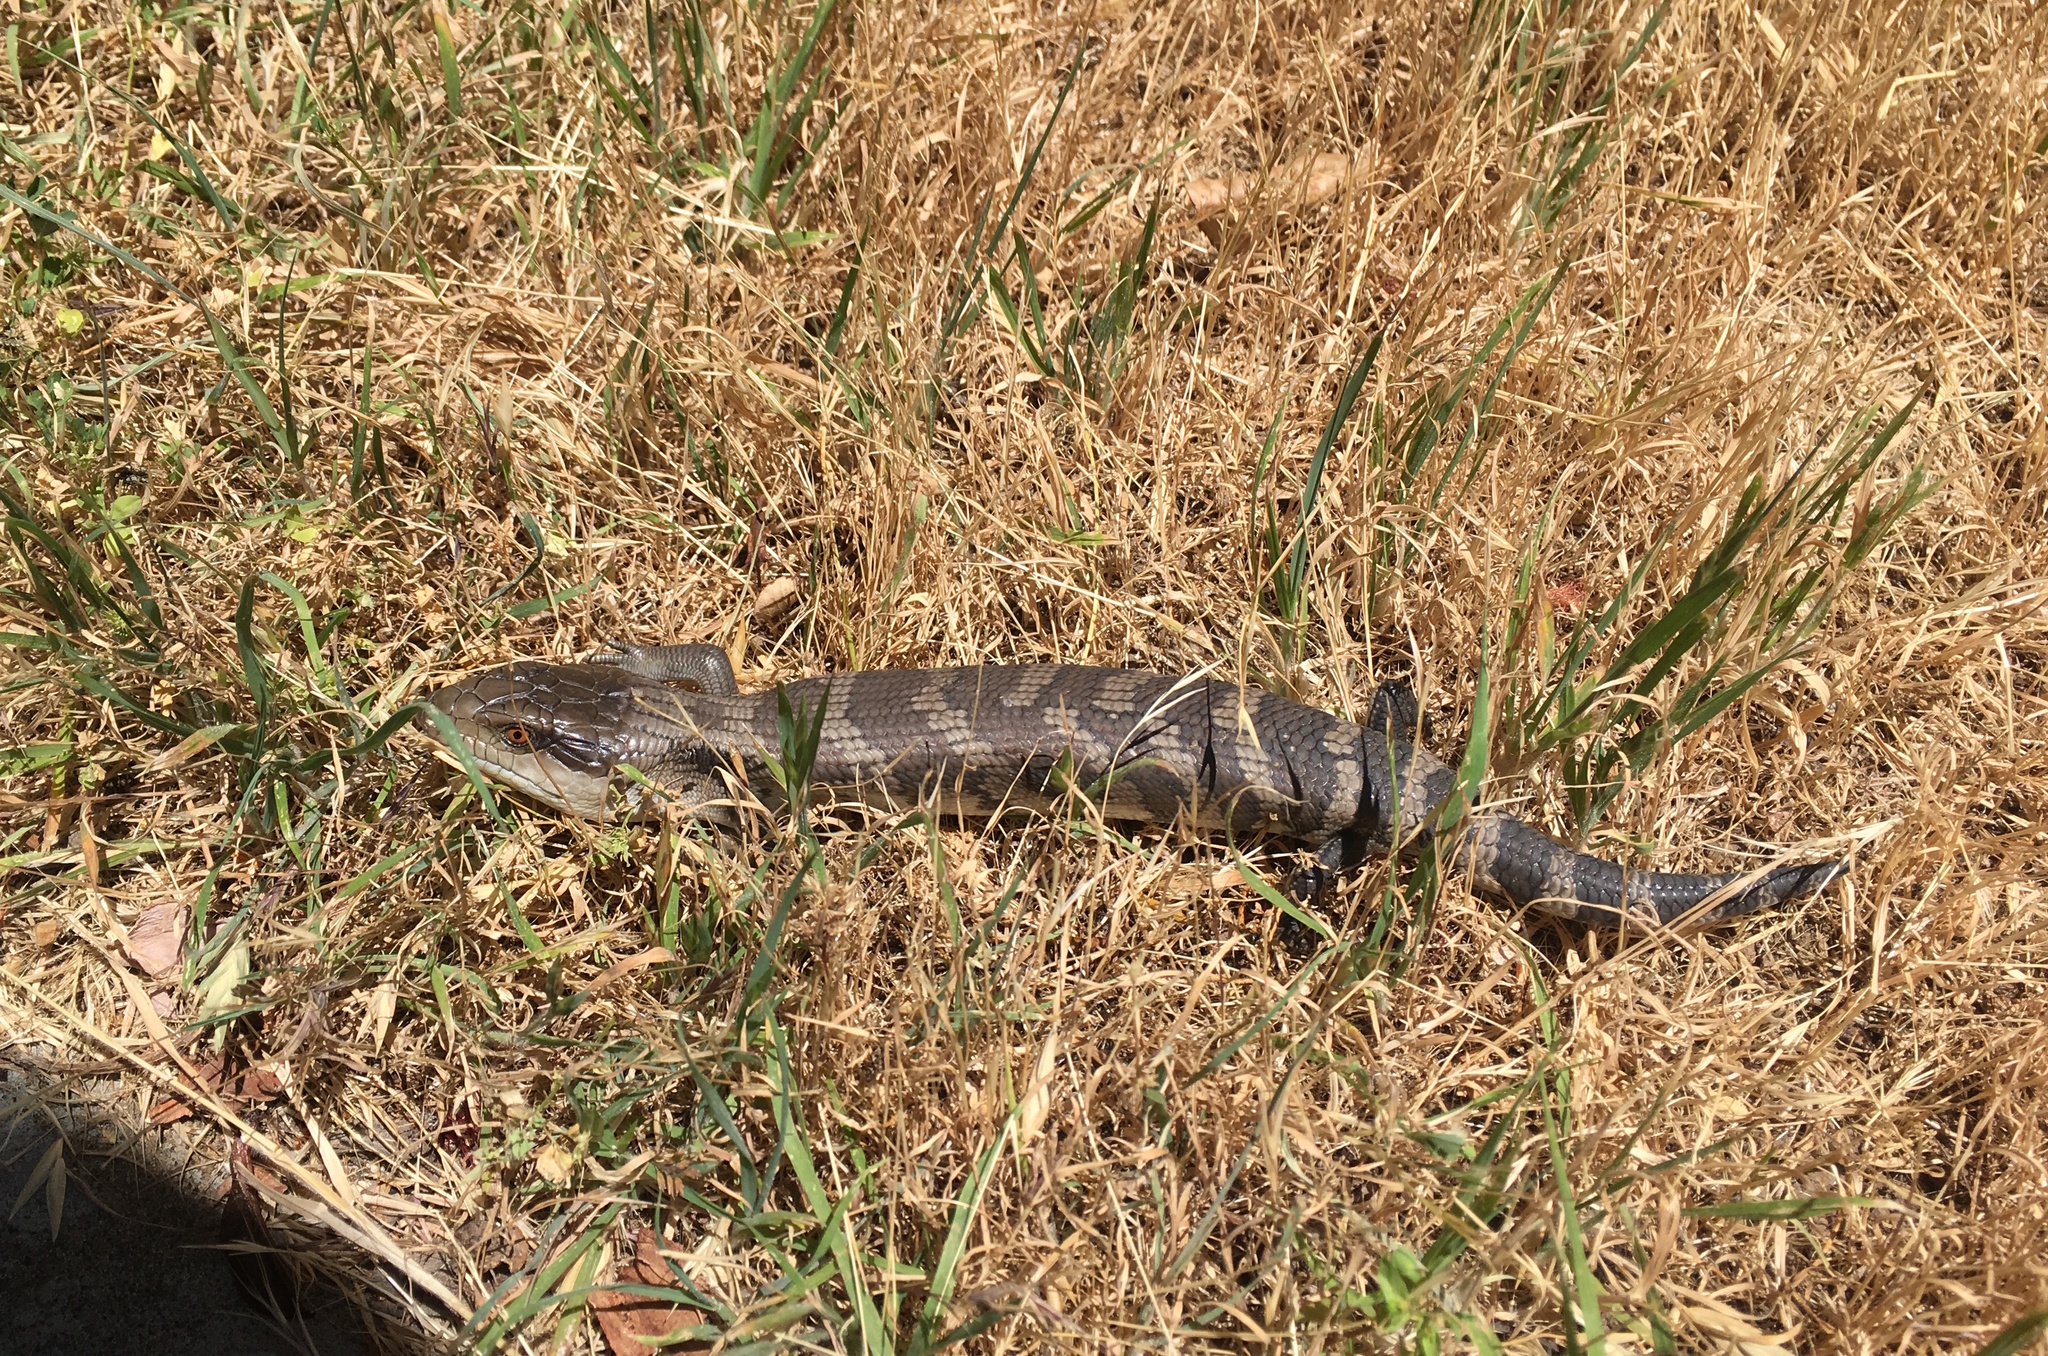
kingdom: Animalia
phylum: Chordata
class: Squamata
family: Scincidae
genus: Tiliqua
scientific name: Tiliqua scincoides
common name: Common bluetongue
